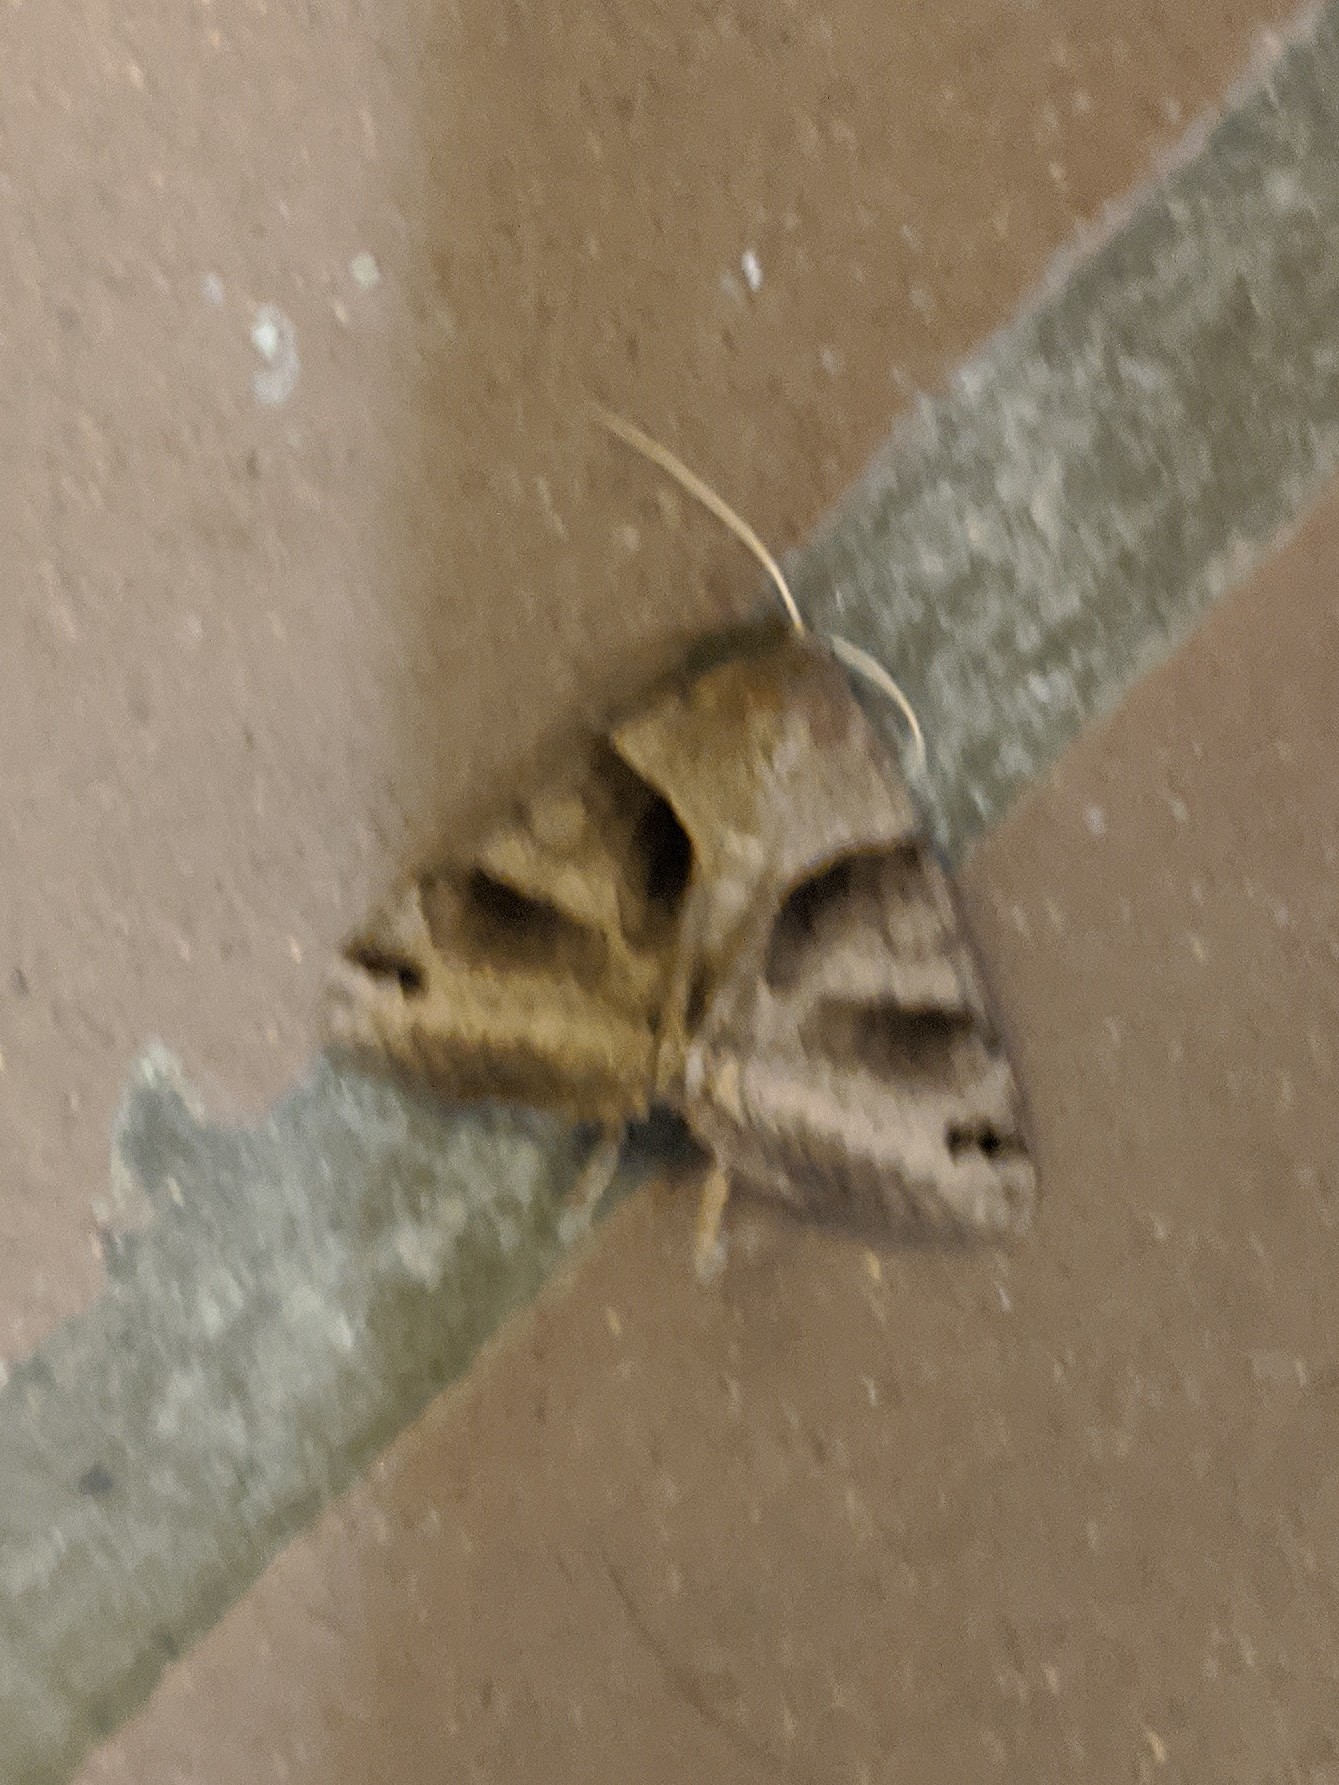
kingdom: Animalia
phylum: Arthropoda
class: Insecta
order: Lepidoptera
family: Erebidae
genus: Caenurgina
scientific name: Caenurgina erechtea
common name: Forage looper moth
